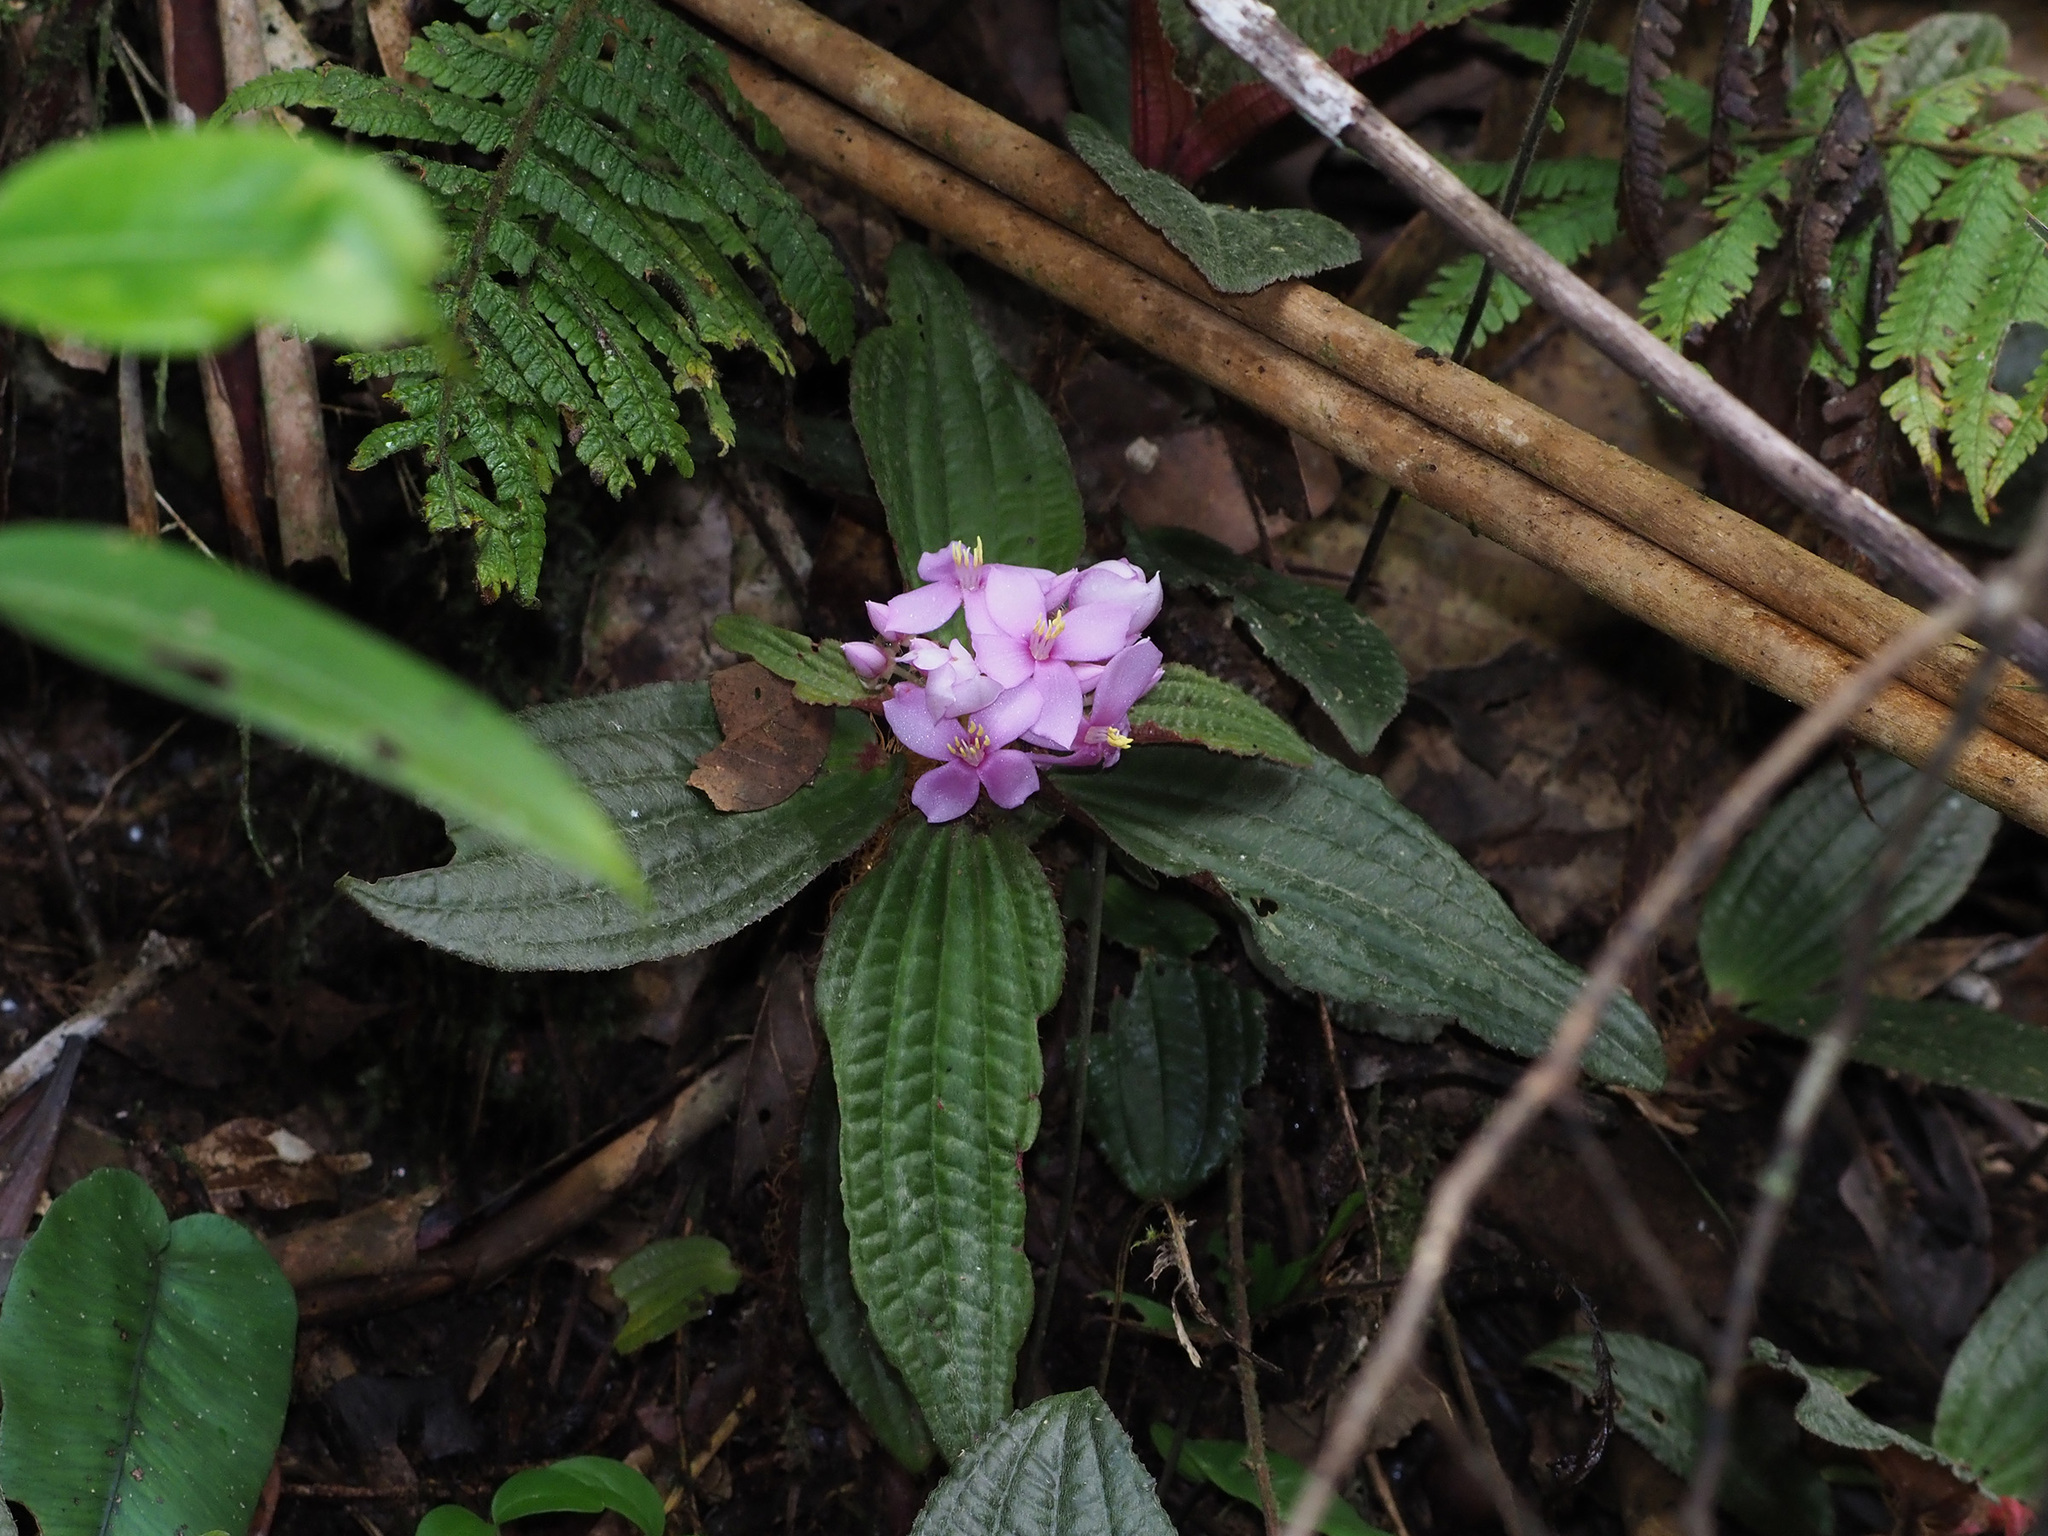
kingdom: Plantae
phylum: Tracheophyta
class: Magnoliopsida
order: Myrtales
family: Melastomataceae
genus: Phyllagathis
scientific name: Phyllagathis elliptica
